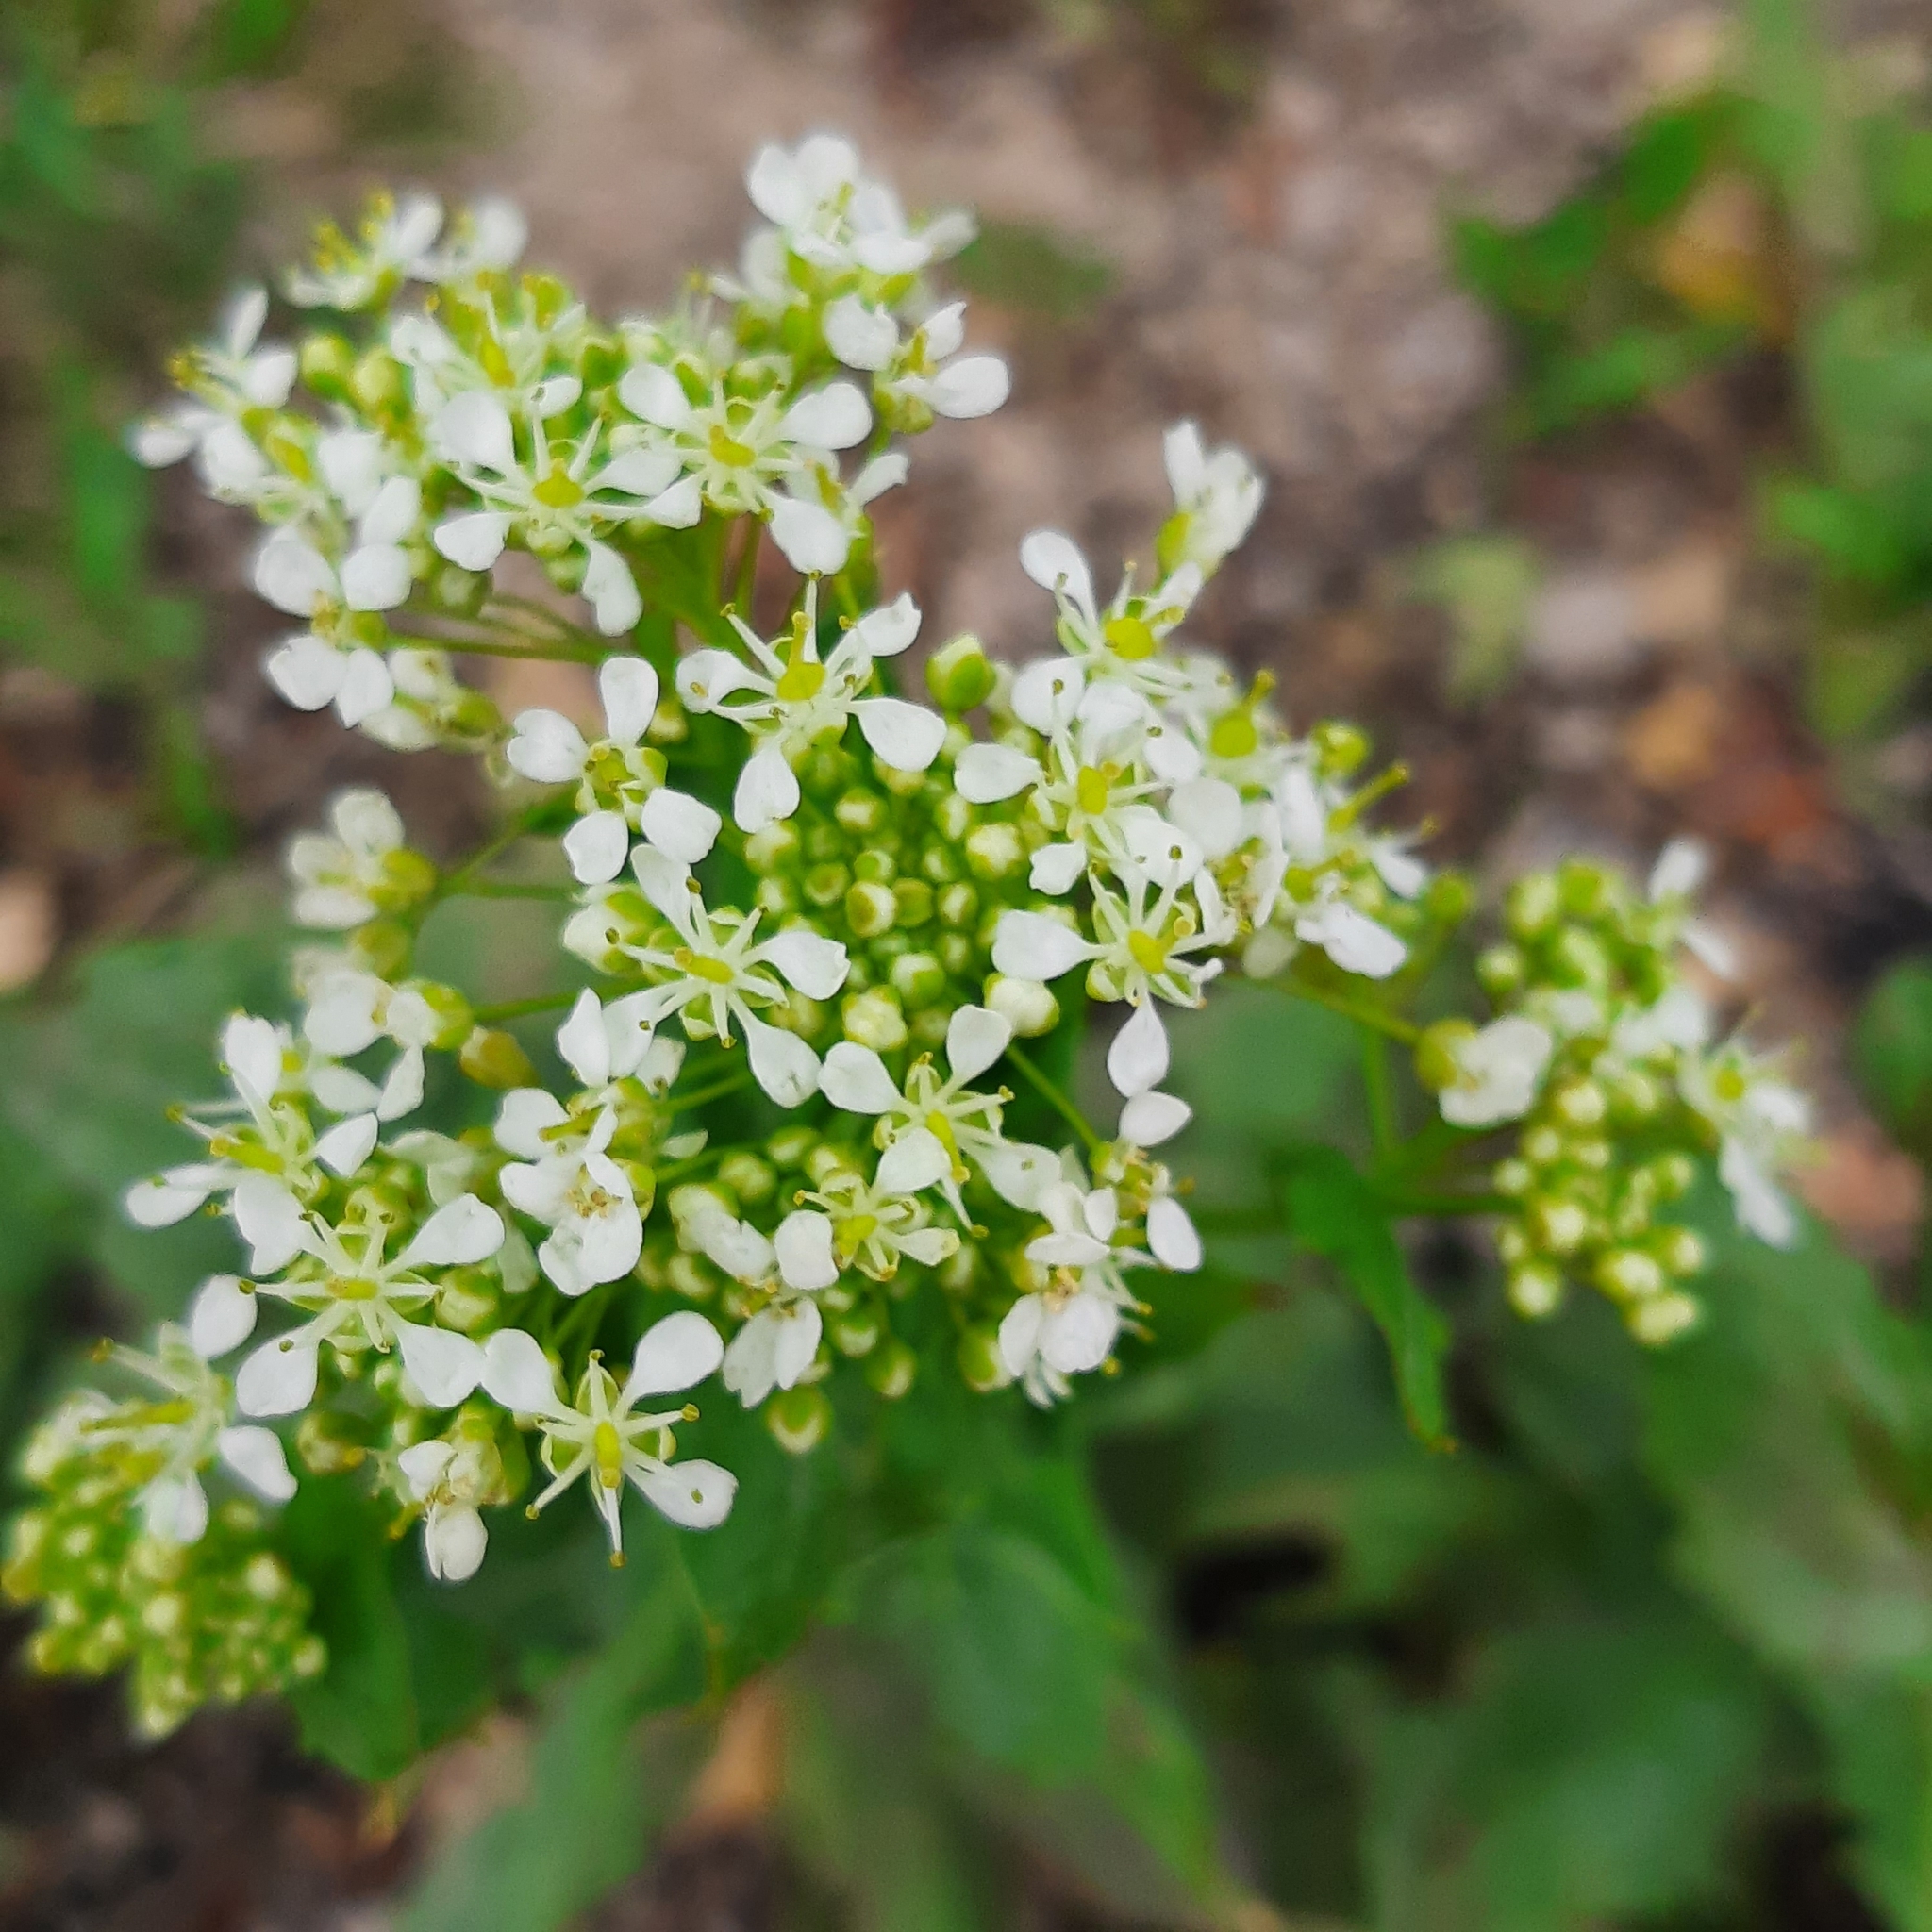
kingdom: Plantae
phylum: Tracheophyta
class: Magnoliopsida
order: Brassicales
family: Brassicaceae
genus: Lepidium
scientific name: Lepidium draba
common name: Hoary cress
